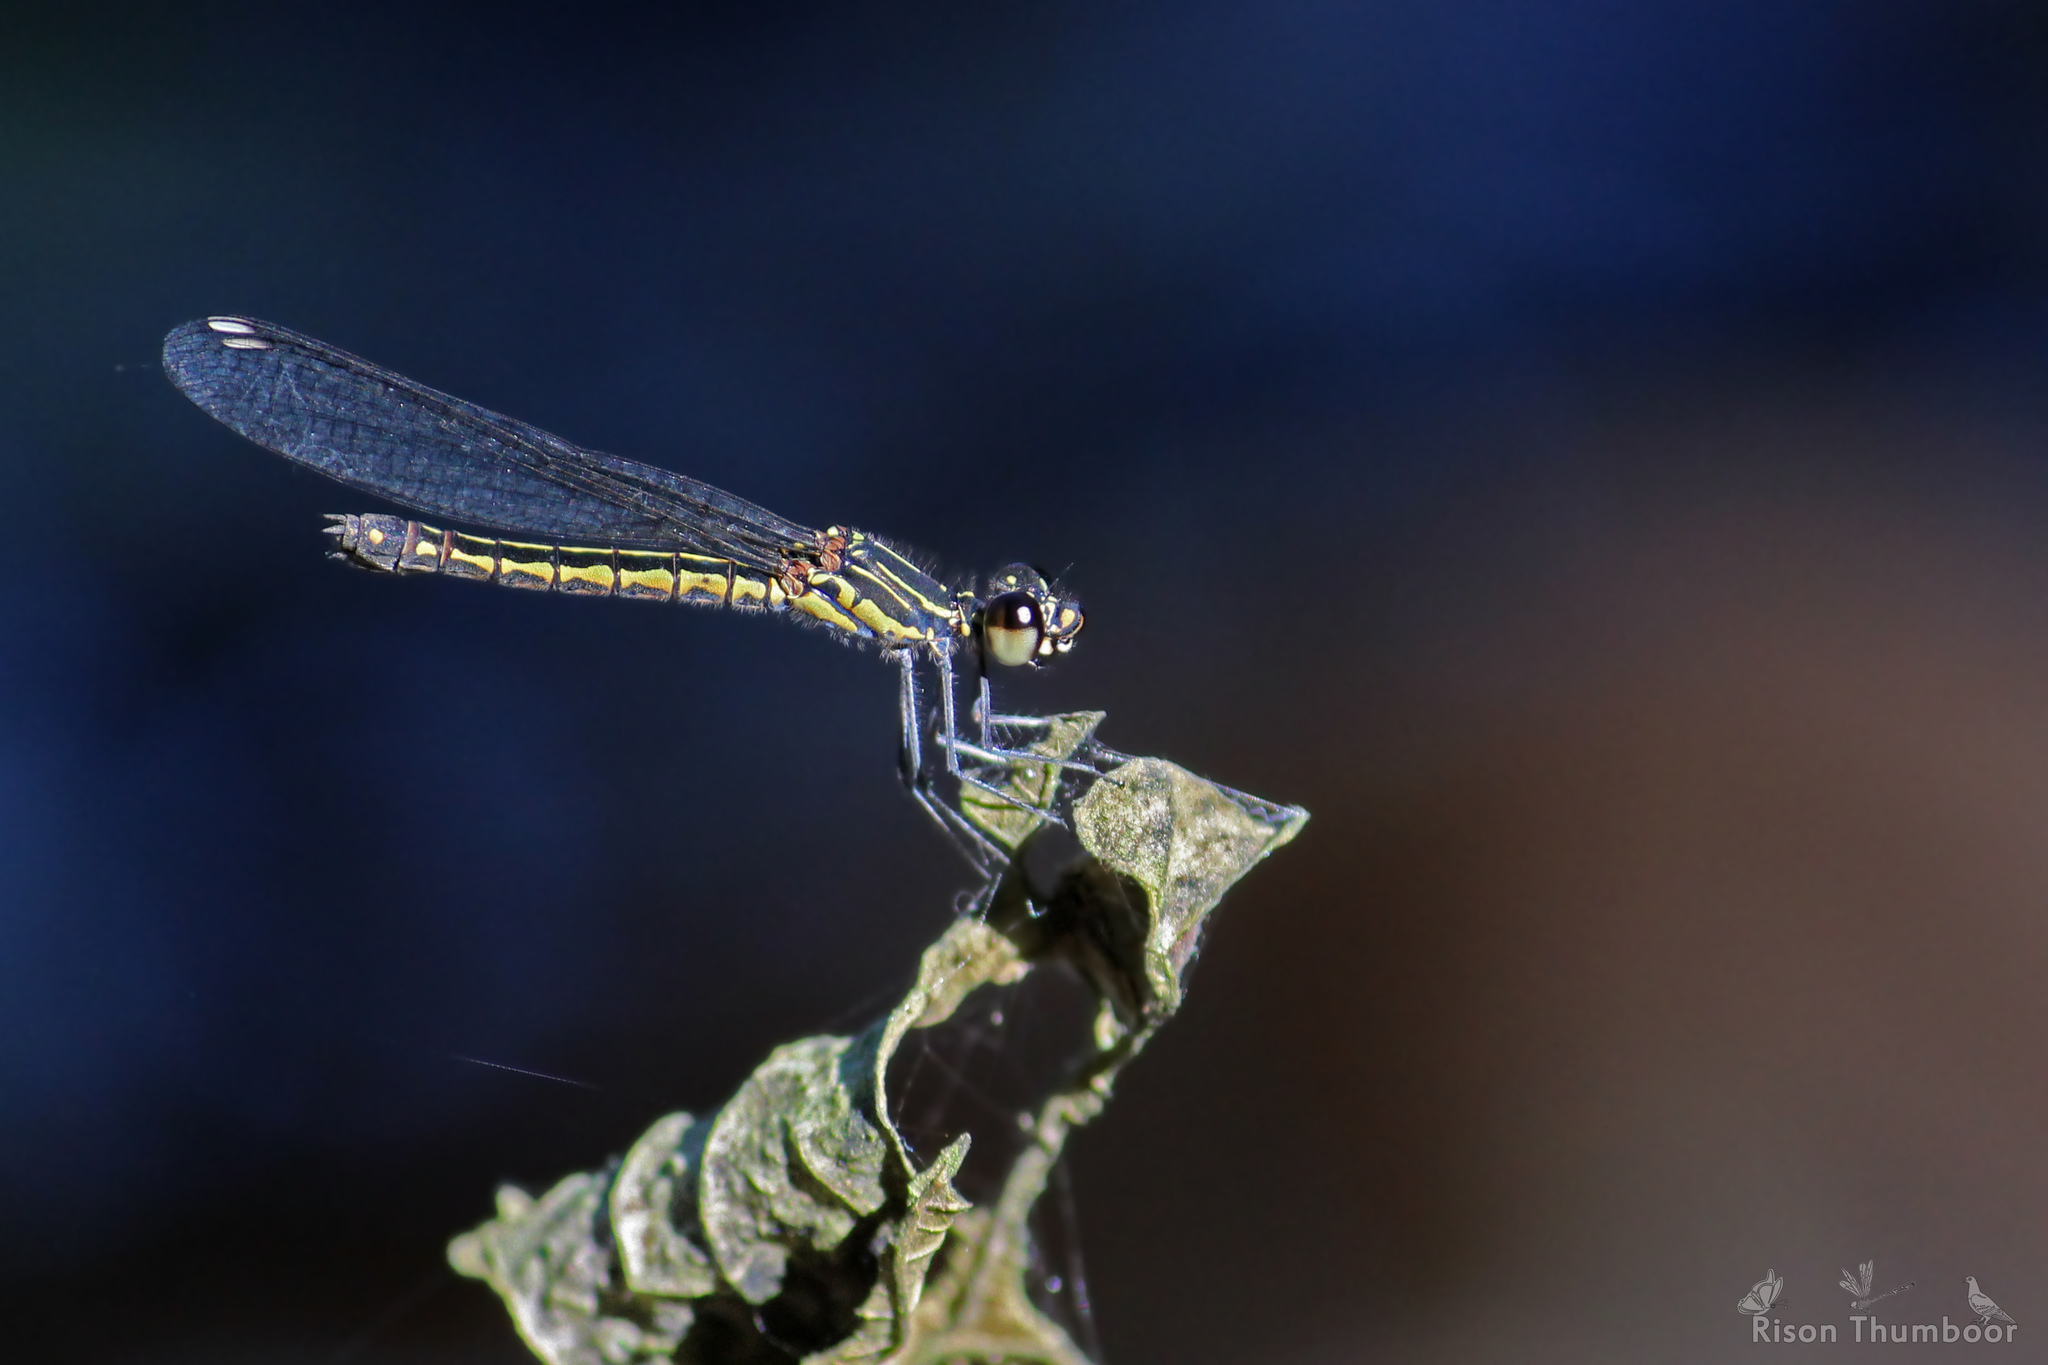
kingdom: Animalia
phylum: Arthropoda
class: Insecta
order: Odonata
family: Chlorocyphidae
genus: Libellago
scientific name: Libellago indica
